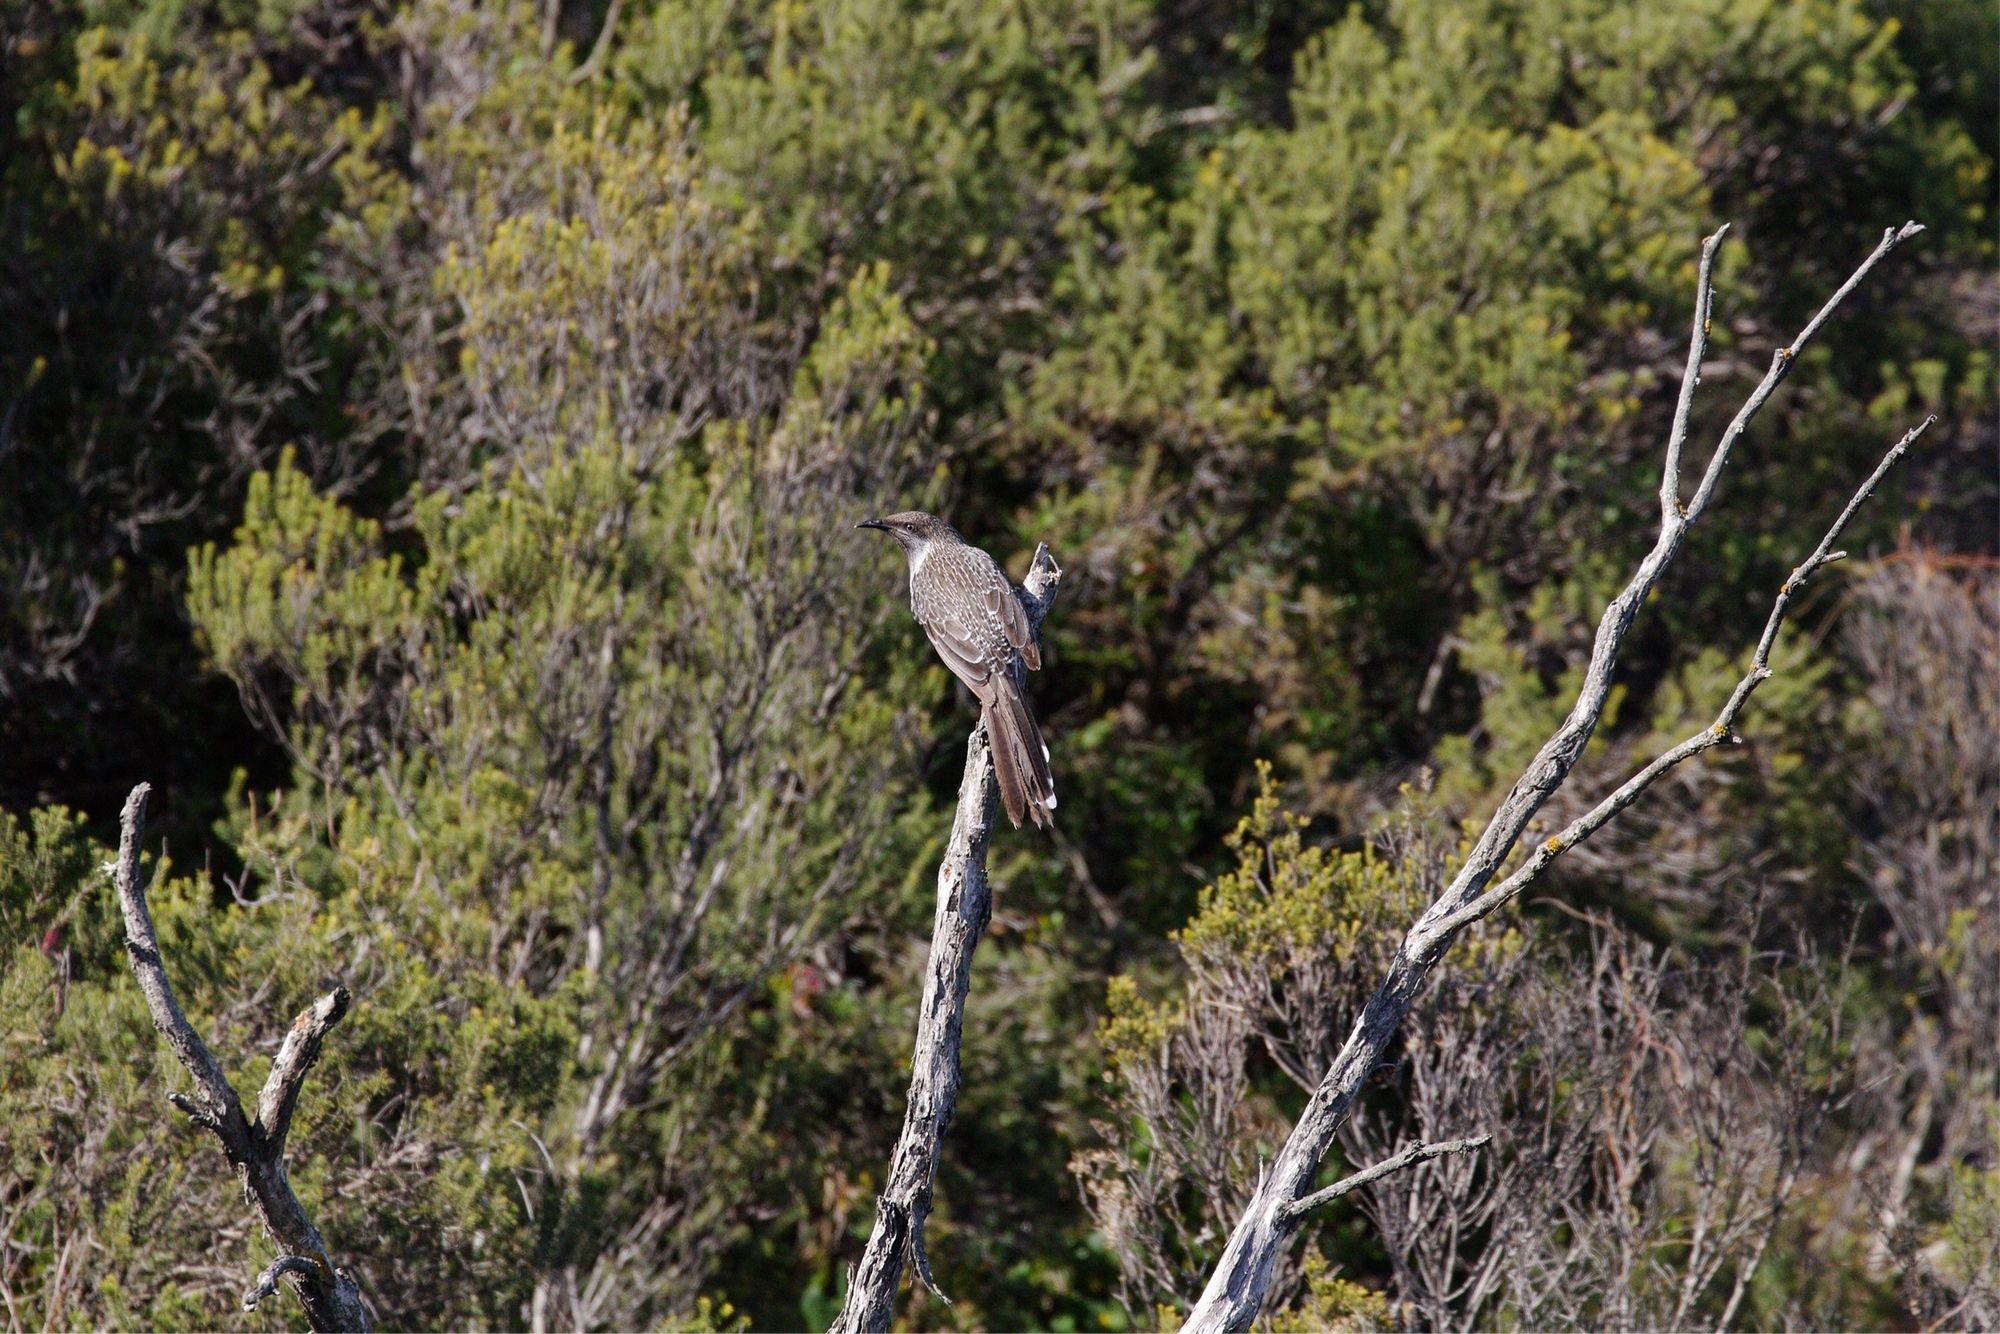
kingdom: Animalia
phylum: Chordata
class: Aves
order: Passeriformes
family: Meliphagidae
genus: Anthochaera
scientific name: Anthochaera chrysoptera
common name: Little wattlebird
